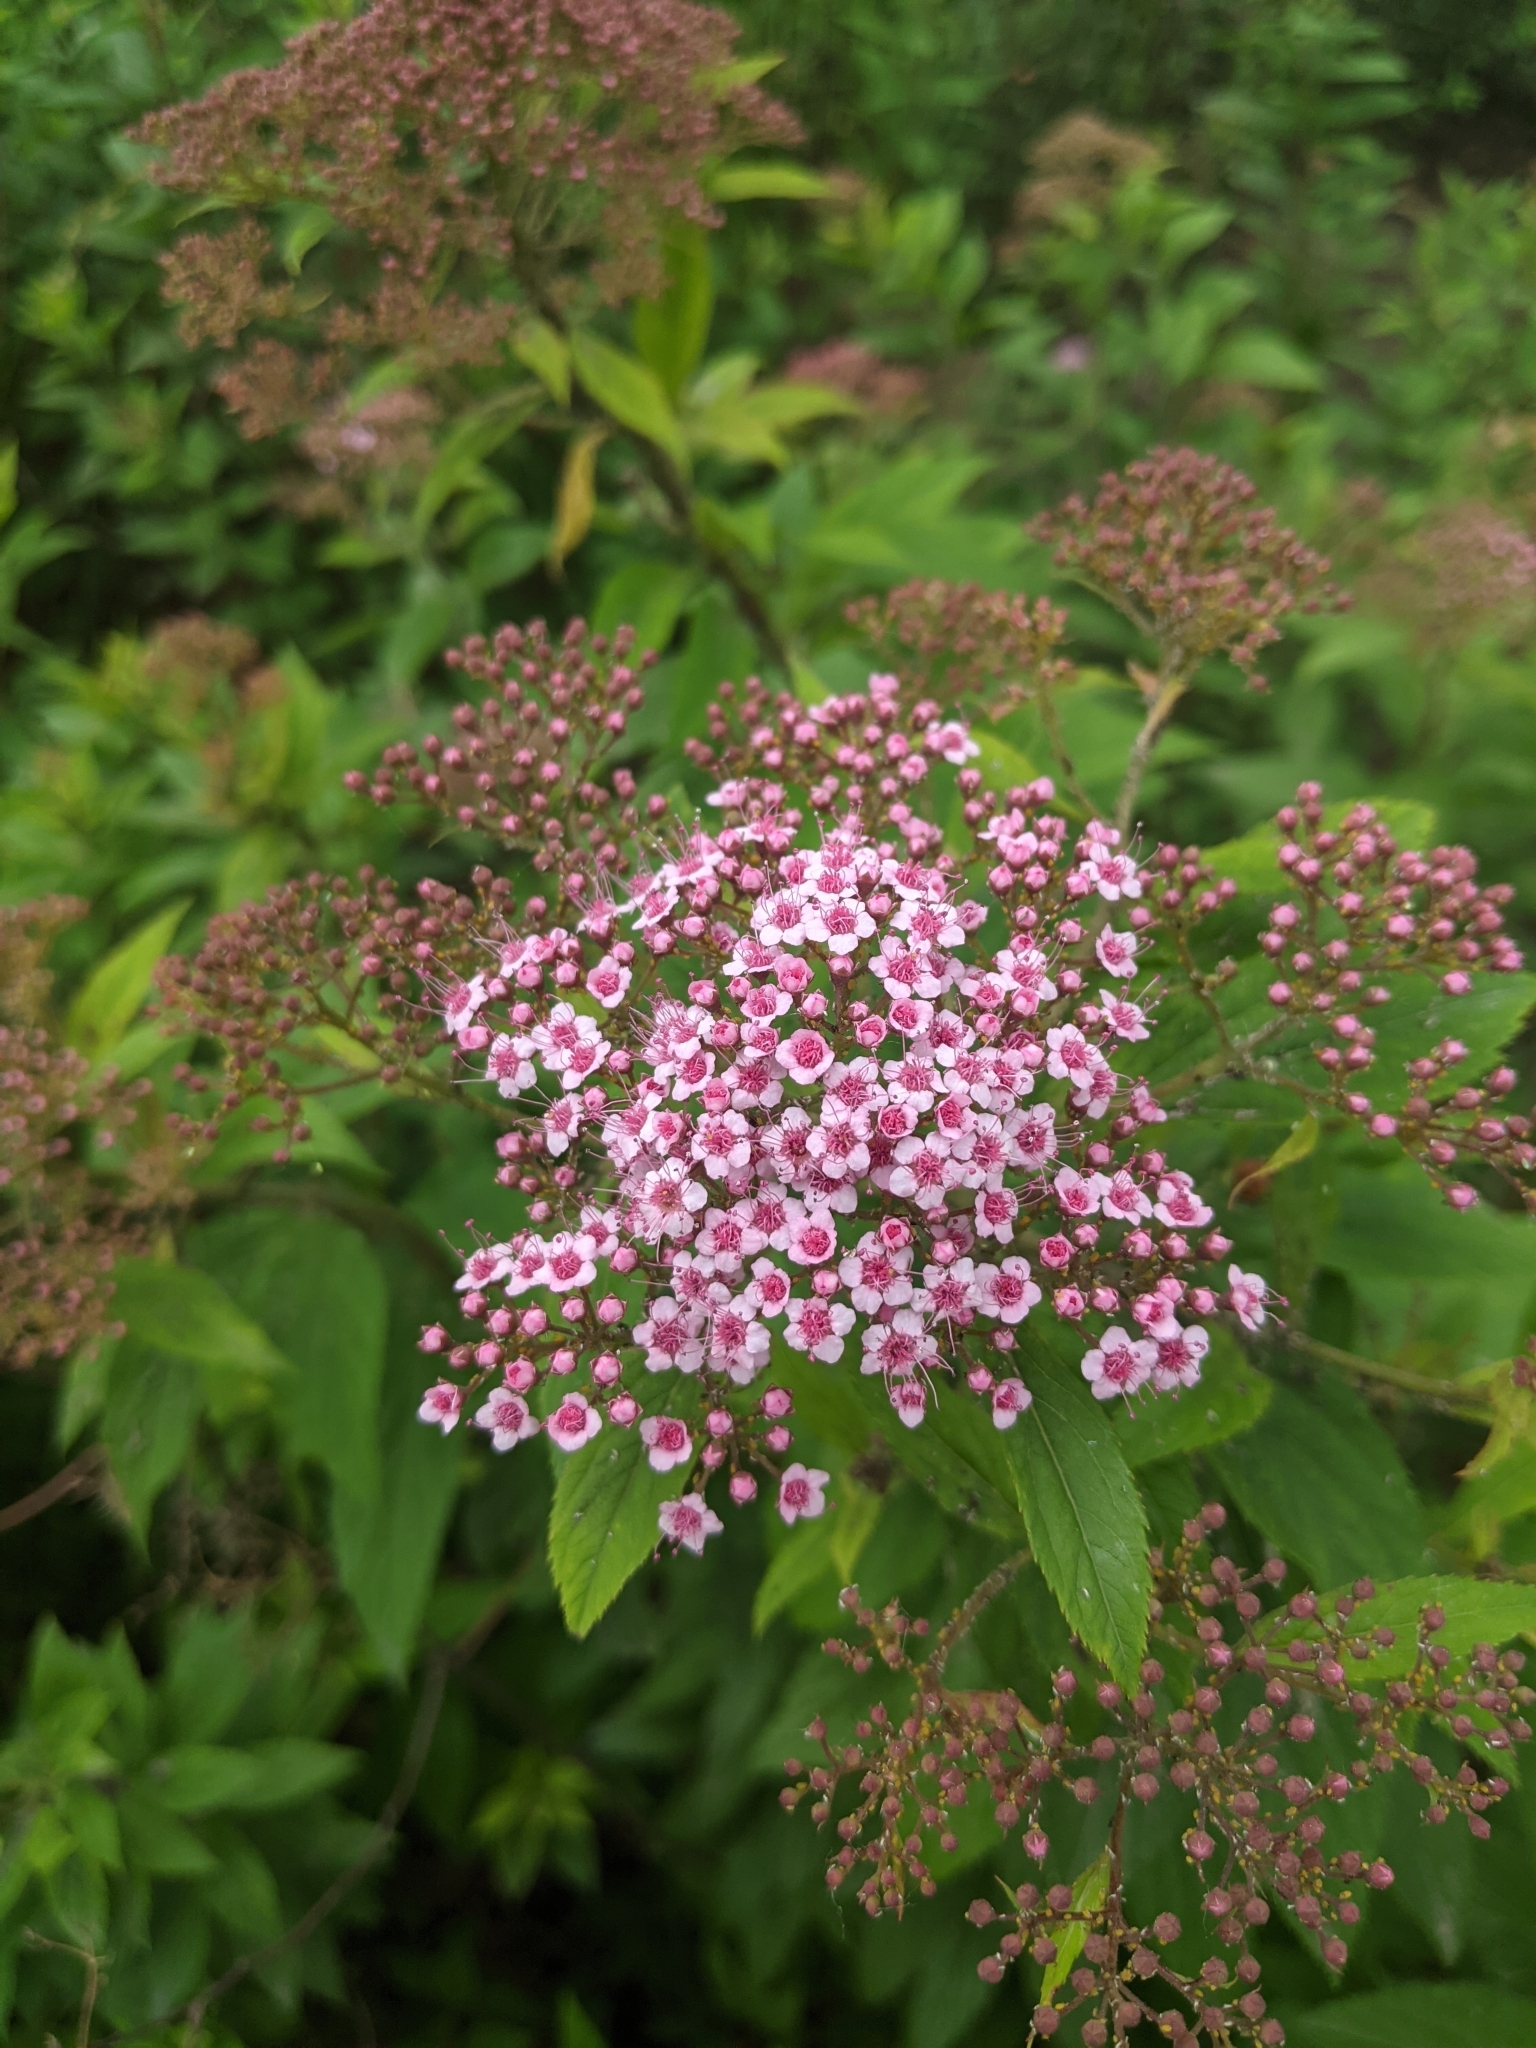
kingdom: Plantae
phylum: Tracheophyta
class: Magnoliopsida
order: Rosales
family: Rosaceae
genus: Spiraea
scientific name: Spiraea japonica
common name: Japanese spiraea
